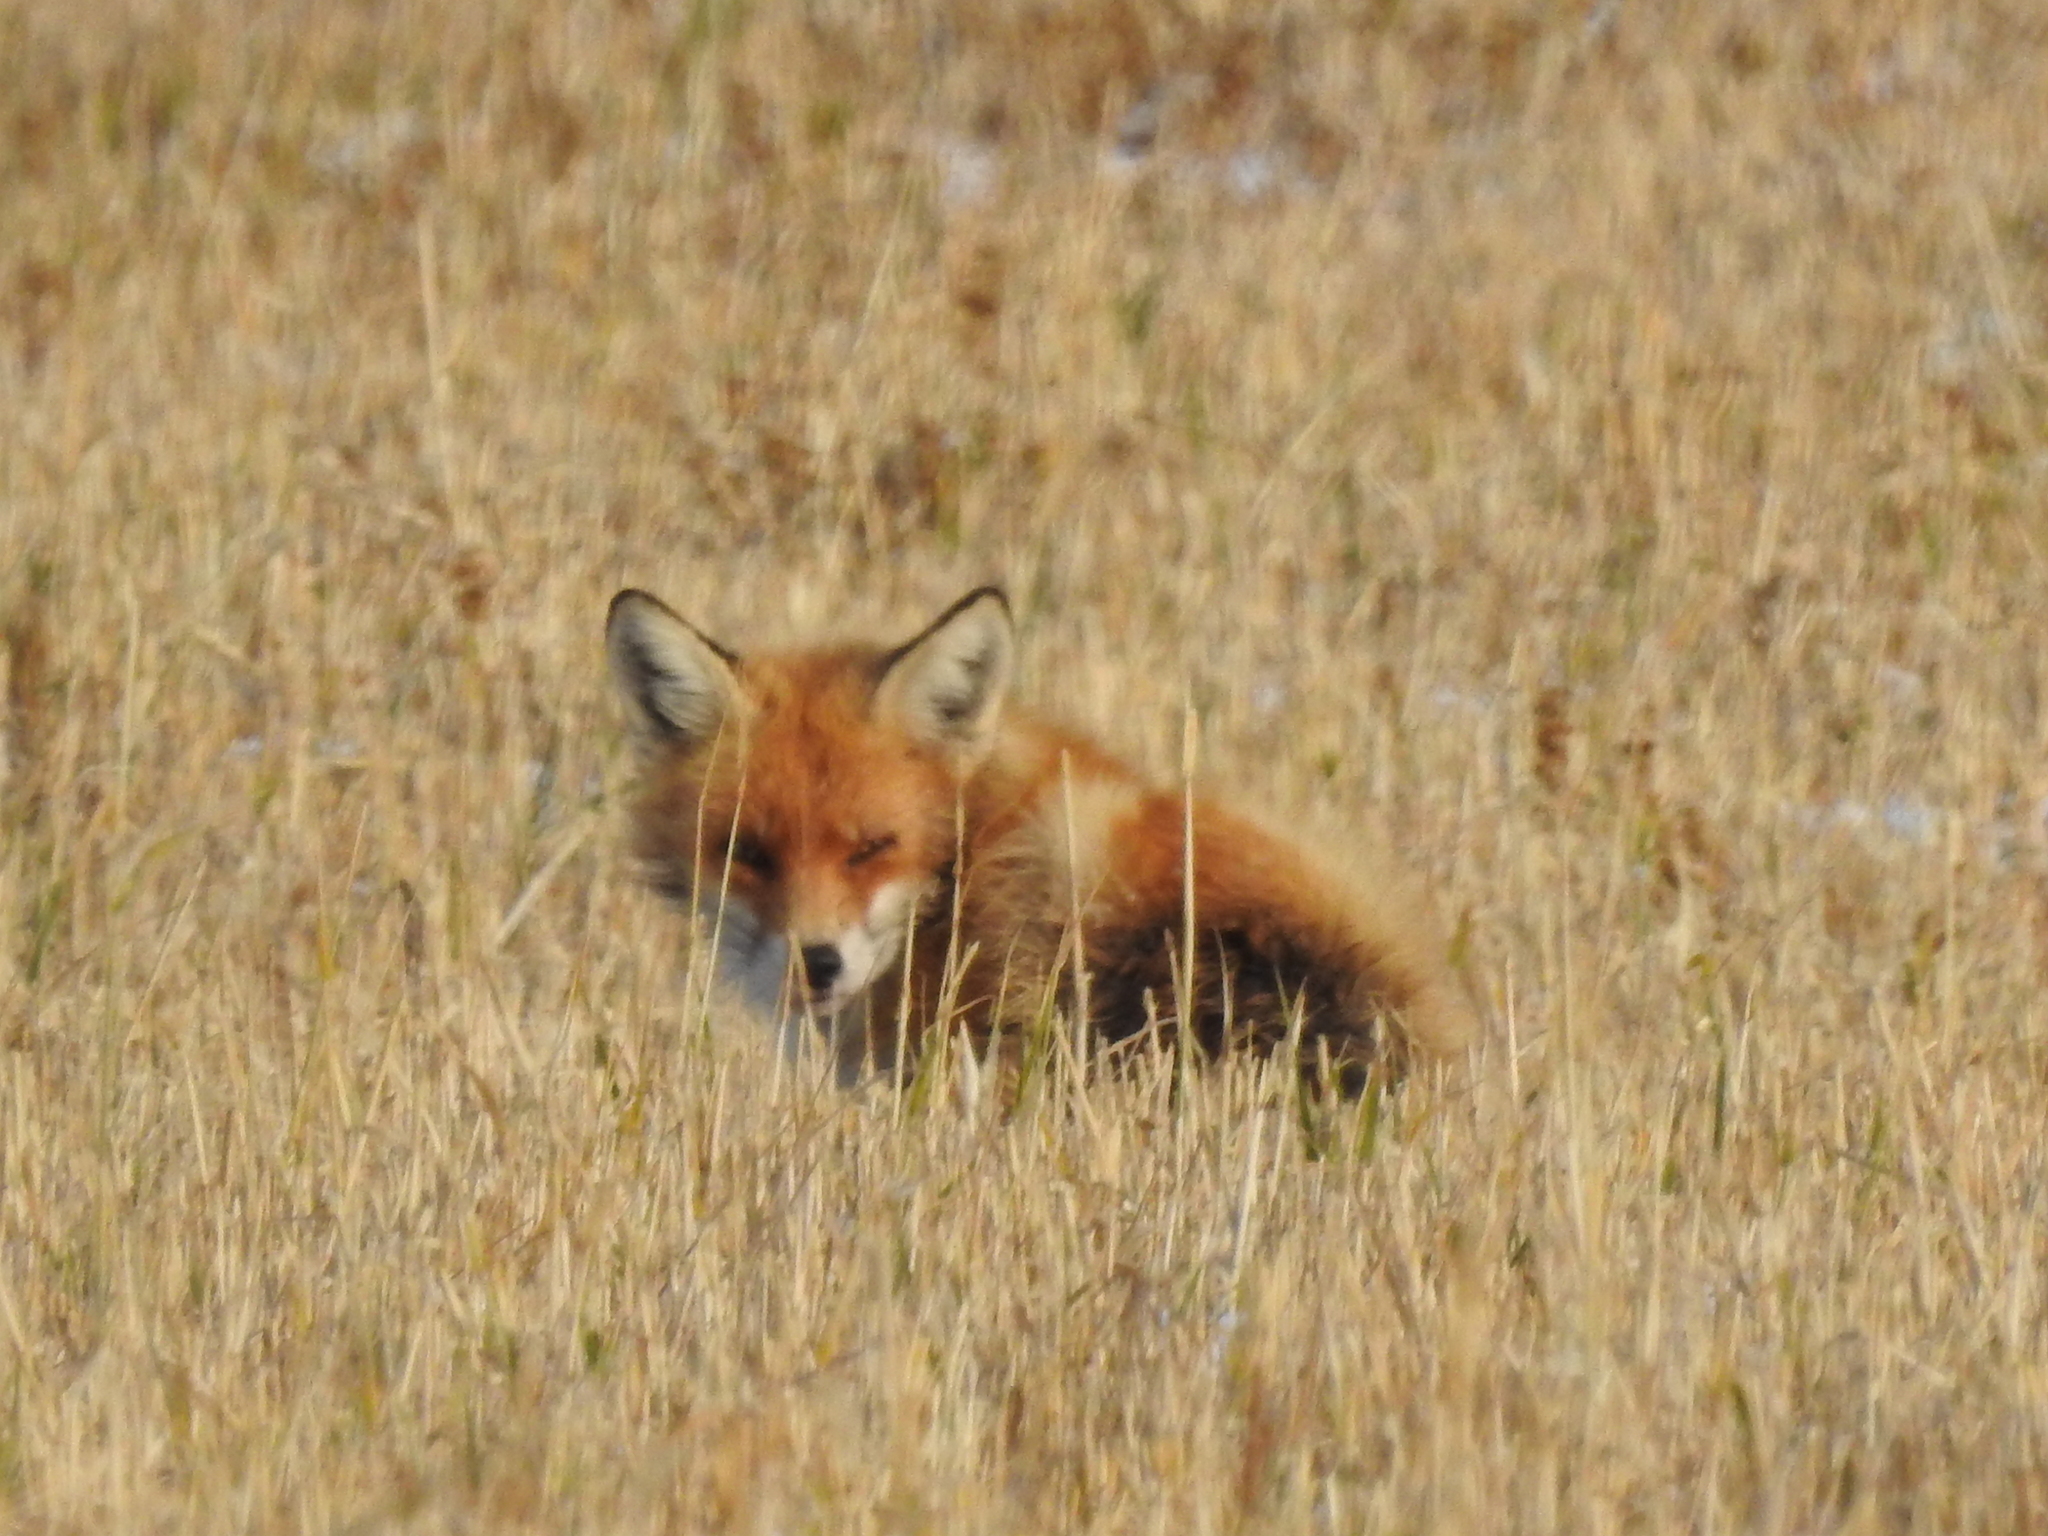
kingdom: Animalia
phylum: Chordata
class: Mammalia
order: Carnivora
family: Canidae
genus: Vulpes
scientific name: Vulpes vulpes
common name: Red fox
